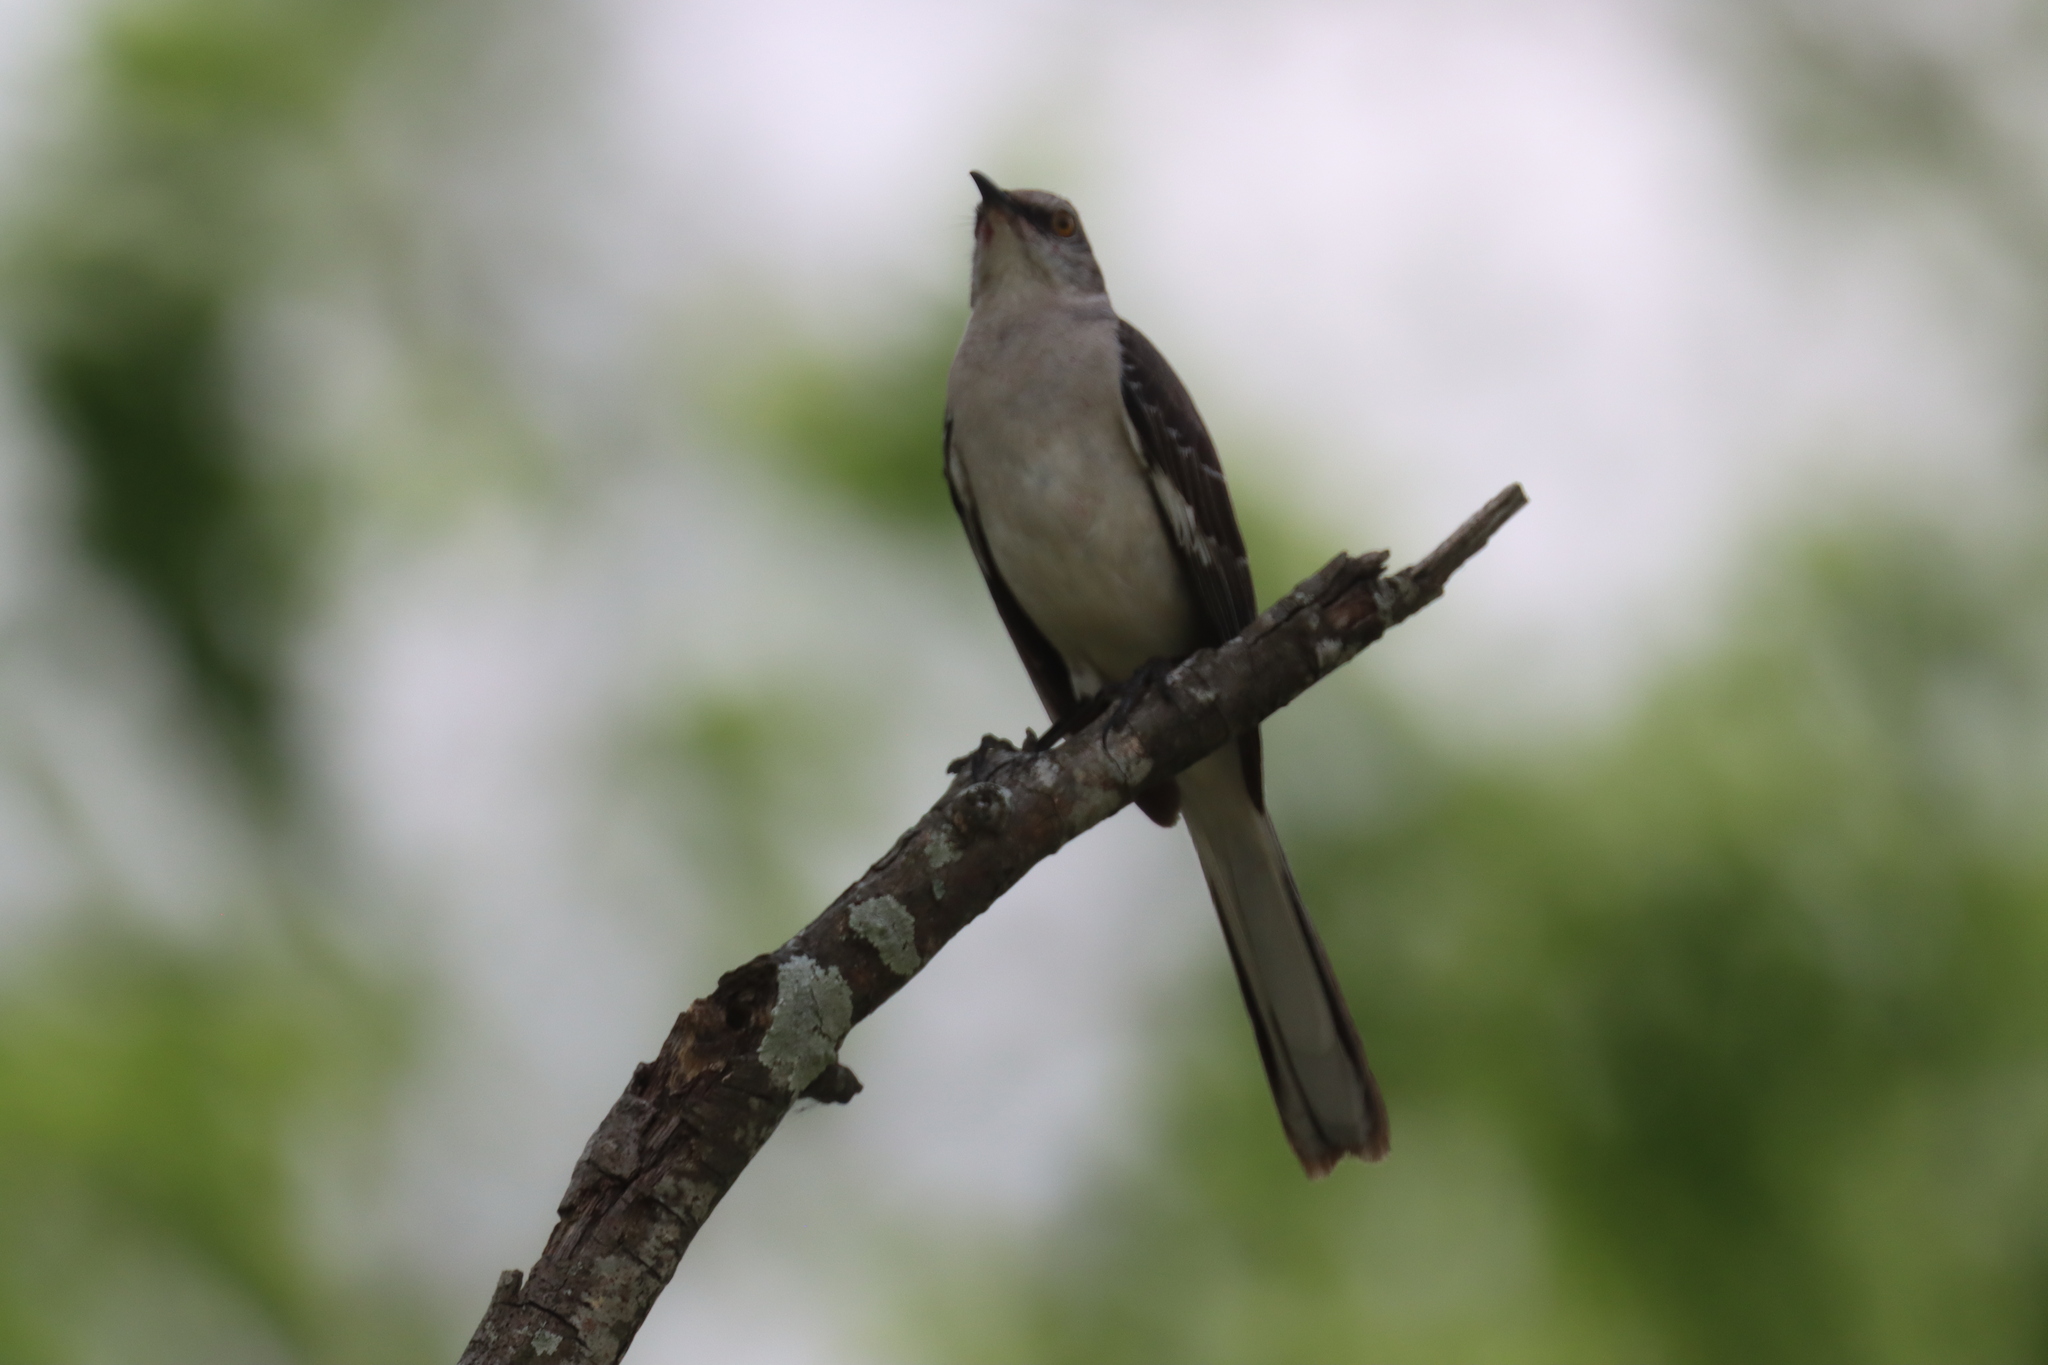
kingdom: Animalia
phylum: Chordata
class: Aves
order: Passeriformes
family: Mimidae
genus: Mimus
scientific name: Mimus polyglottos
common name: Northern mockingbird
